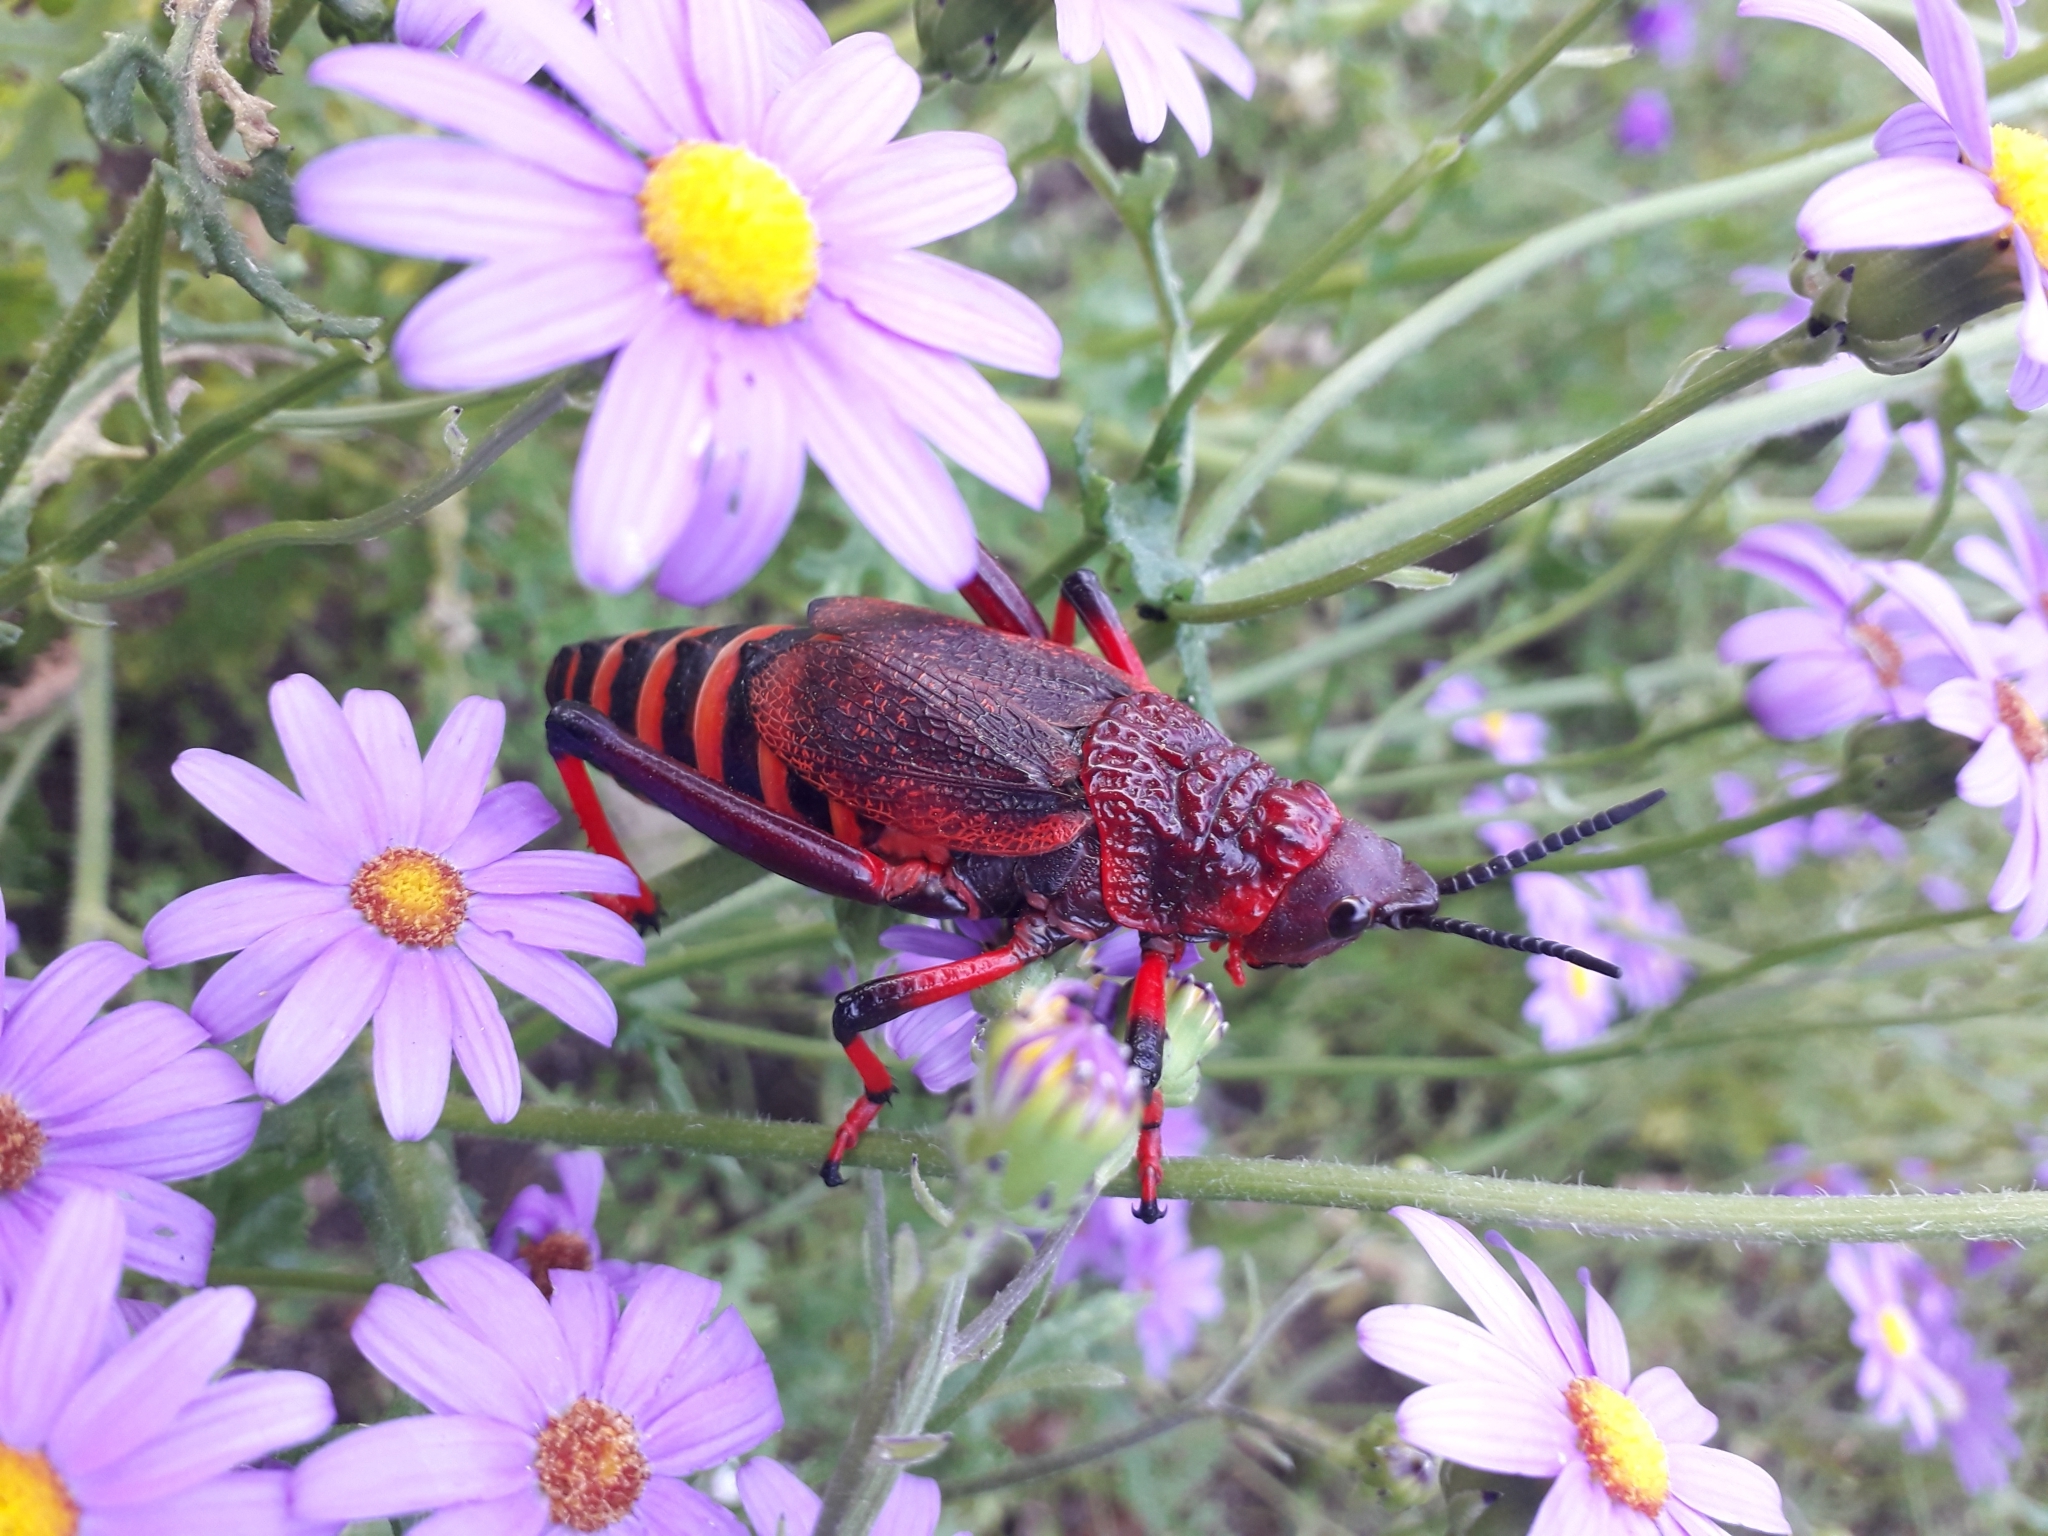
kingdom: Animalia
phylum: Arthropoda
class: Insecta
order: Orthoptera
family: Pyrgomorphidae
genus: Dictyophorus
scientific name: Dictyophorus spumans
